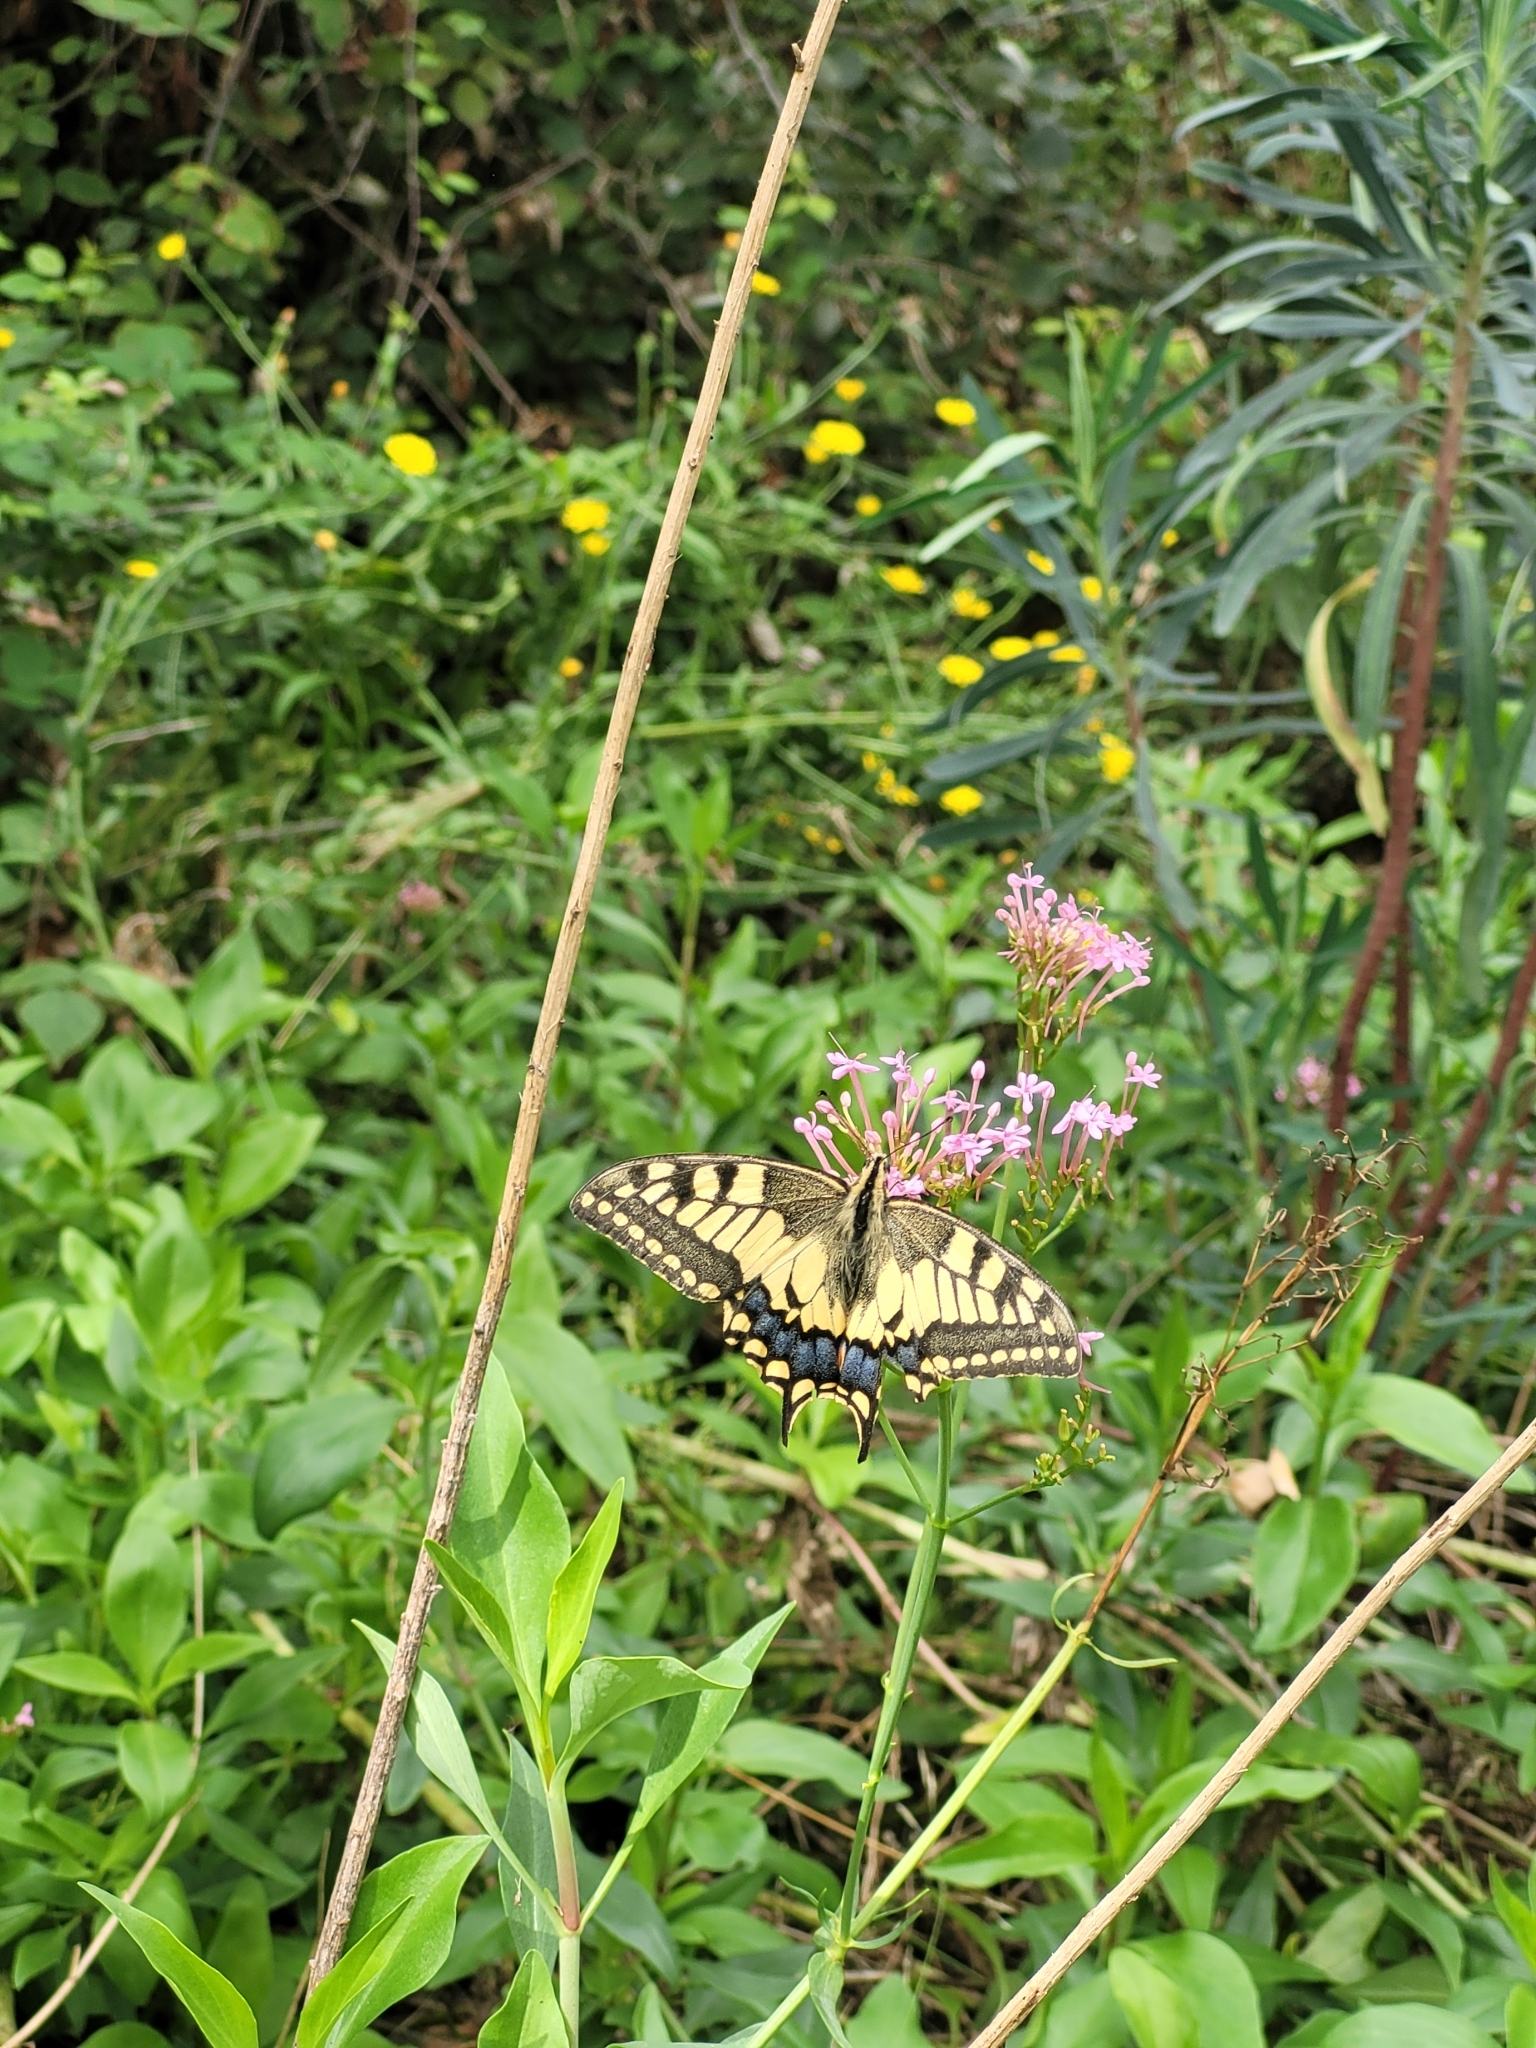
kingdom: Animalia
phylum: Arthropoda
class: Insecta
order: Lepidoptera
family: Papilionidae
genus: Papilio
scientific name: Papilio machaon
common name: Swallowtail
